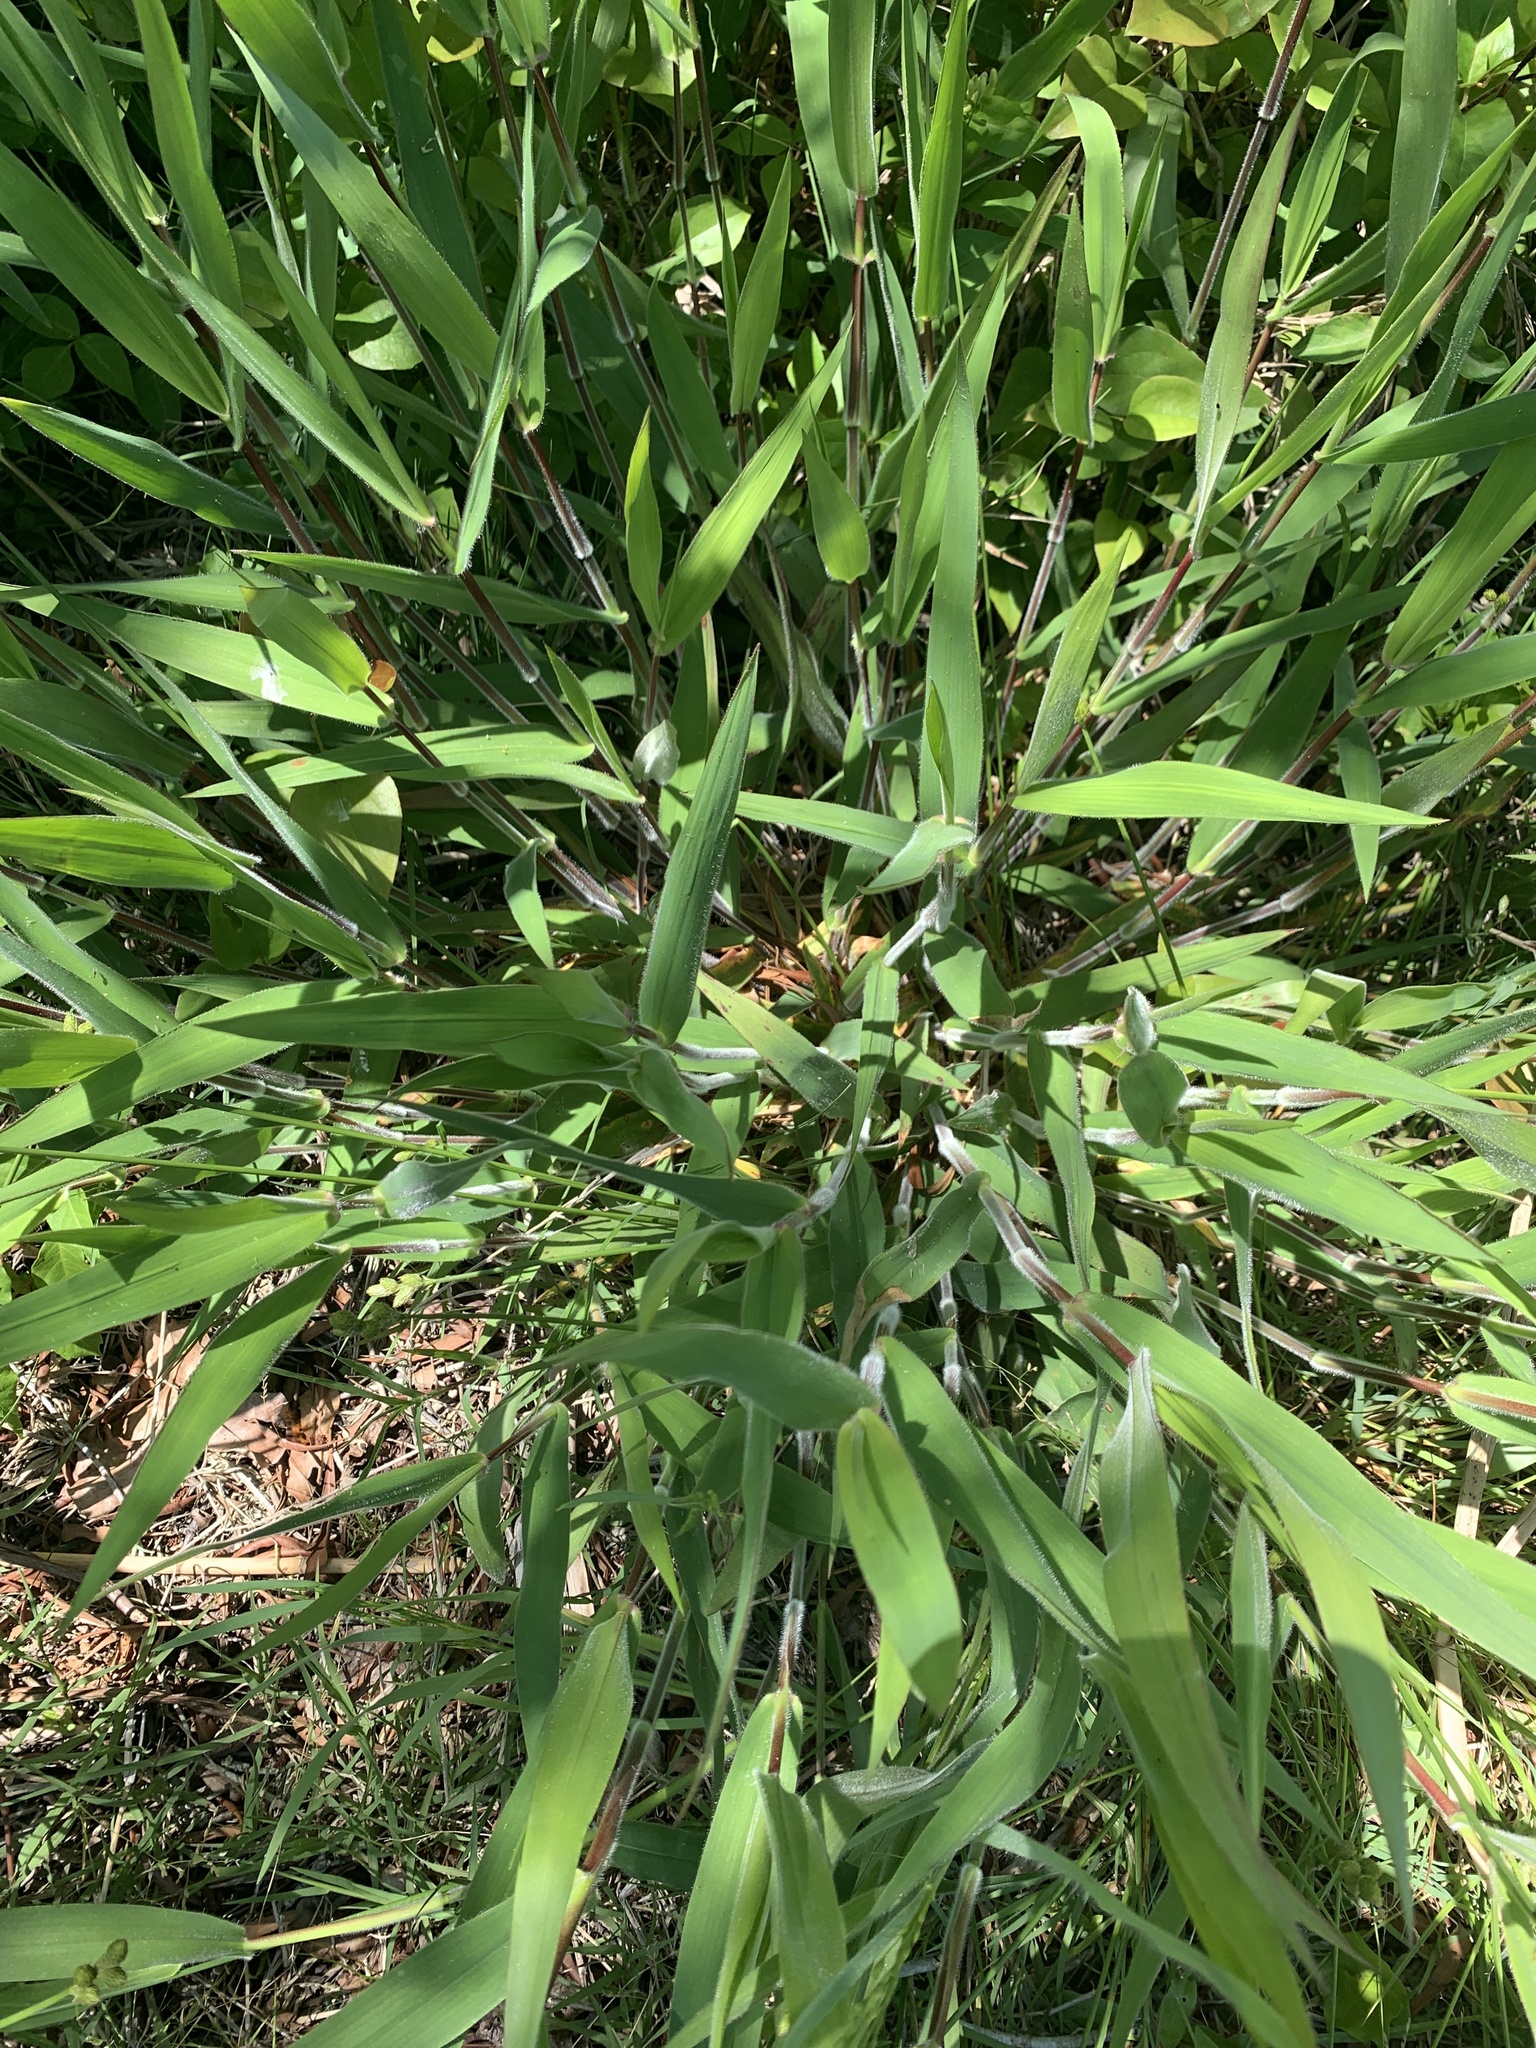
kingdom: Plantae
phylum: Tracheophyta
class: Liliopsida
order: Poales
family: Poaceae
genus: Dichanthelium
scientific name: Dichanthelium scoparium
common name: Velvety panic grass
